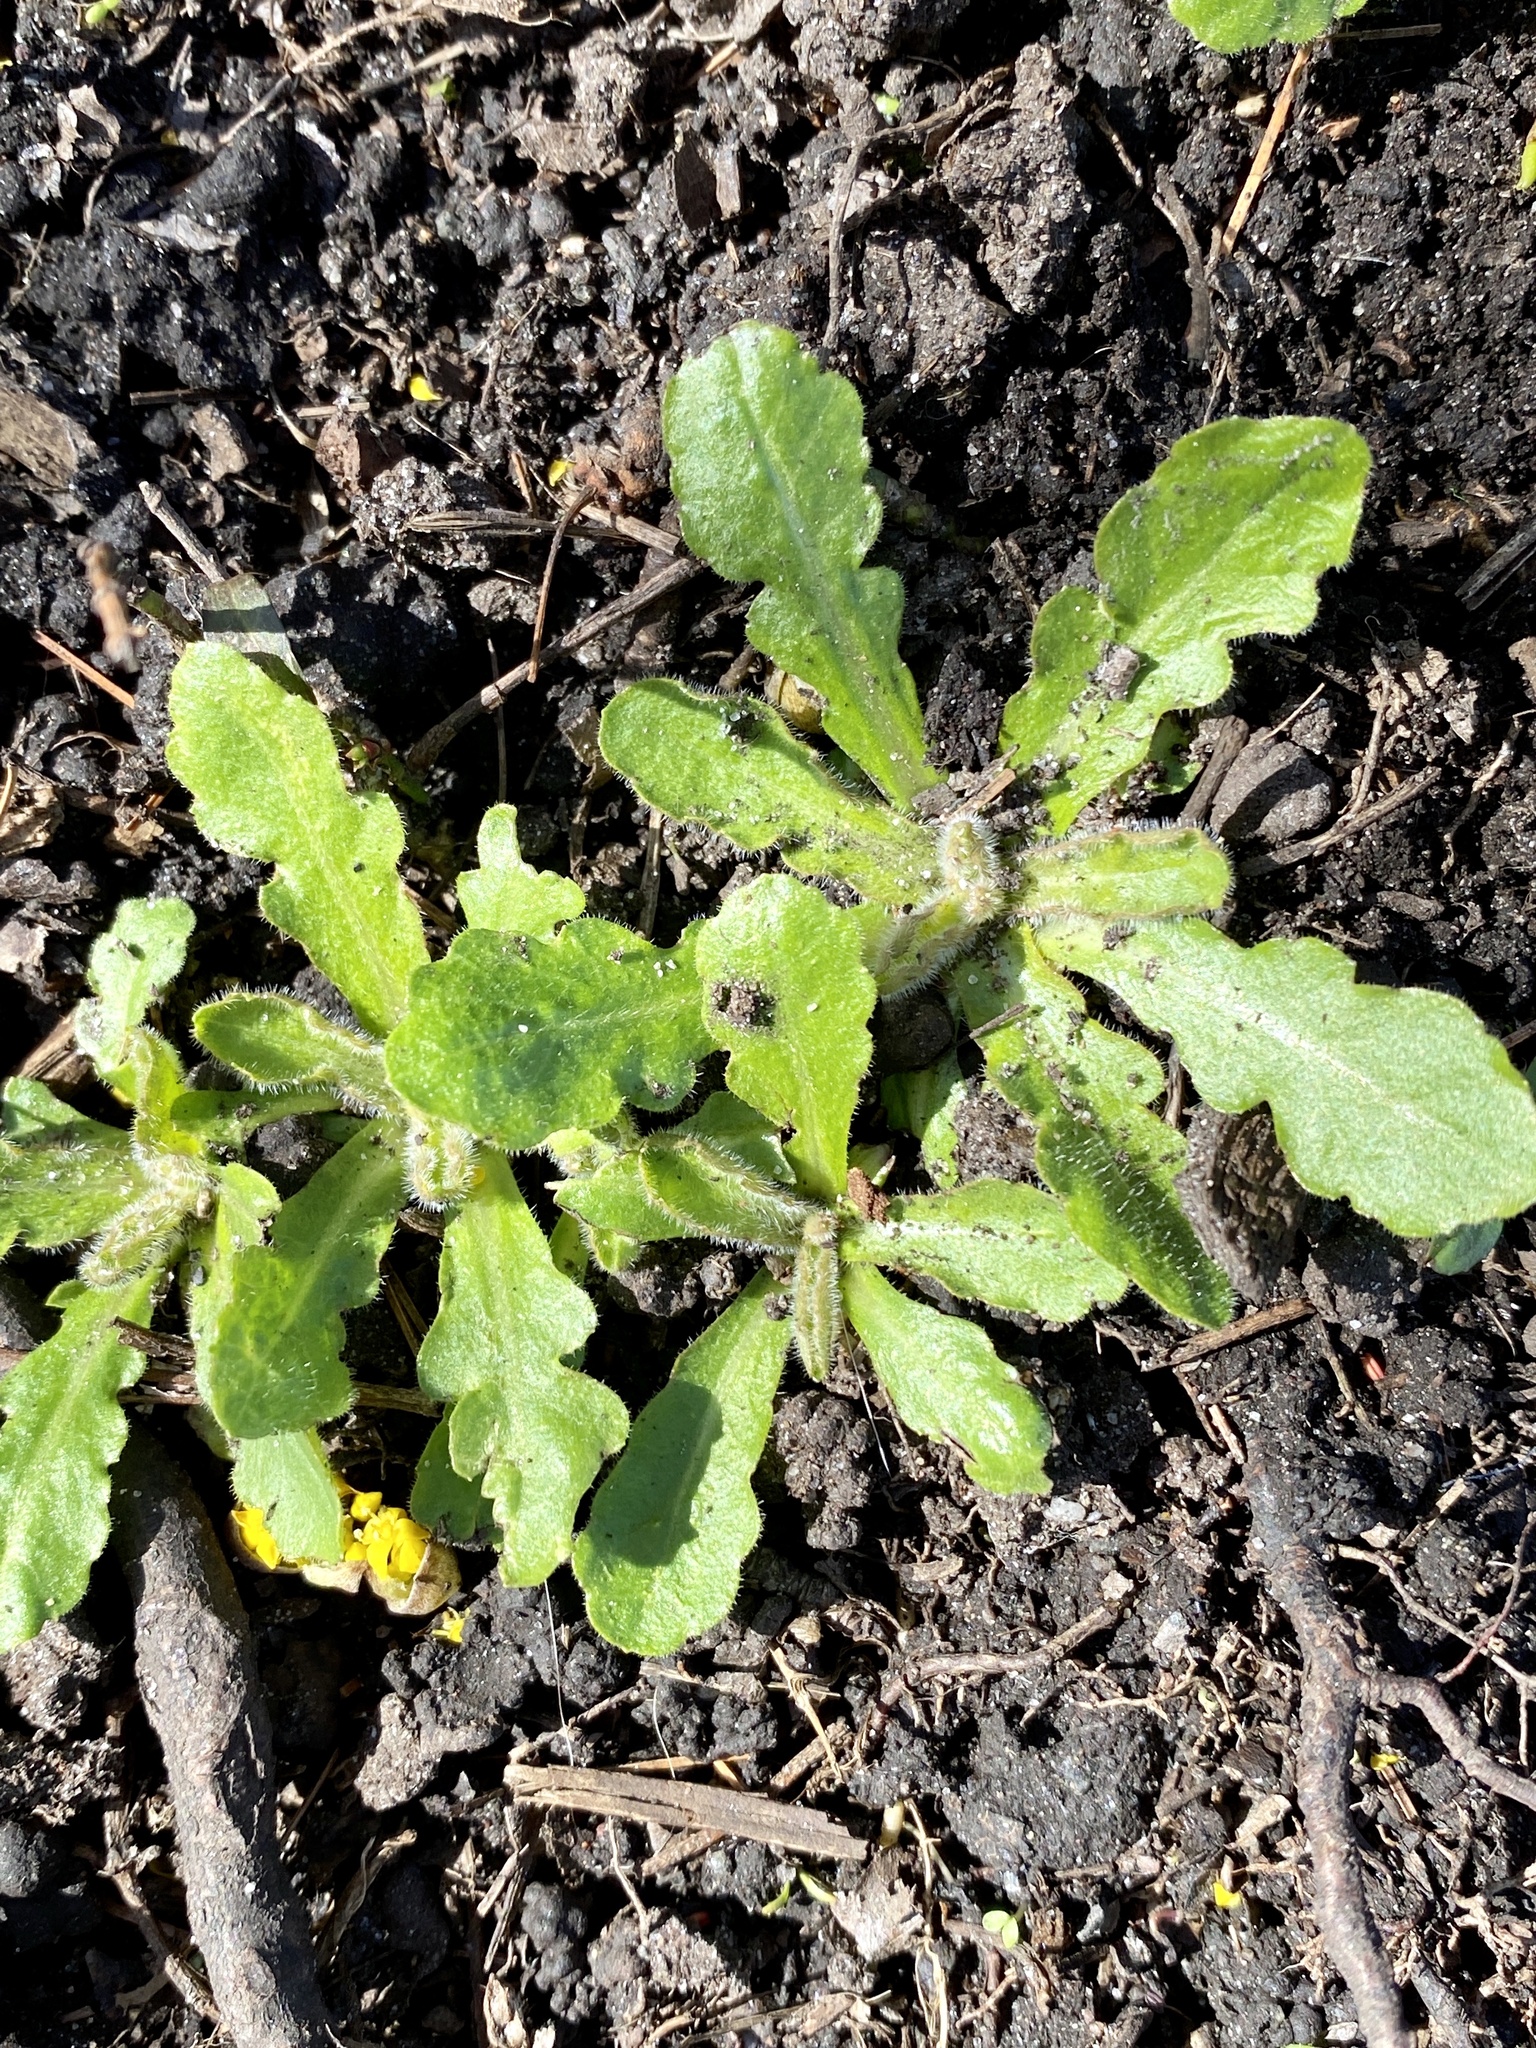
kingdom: Plantae
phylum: Tracheophyta
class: Magnoliopsida
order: Asterales
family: Asteraceae
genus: Hypochaeris
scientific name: Hypochaeris radicata
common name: Flatweed
